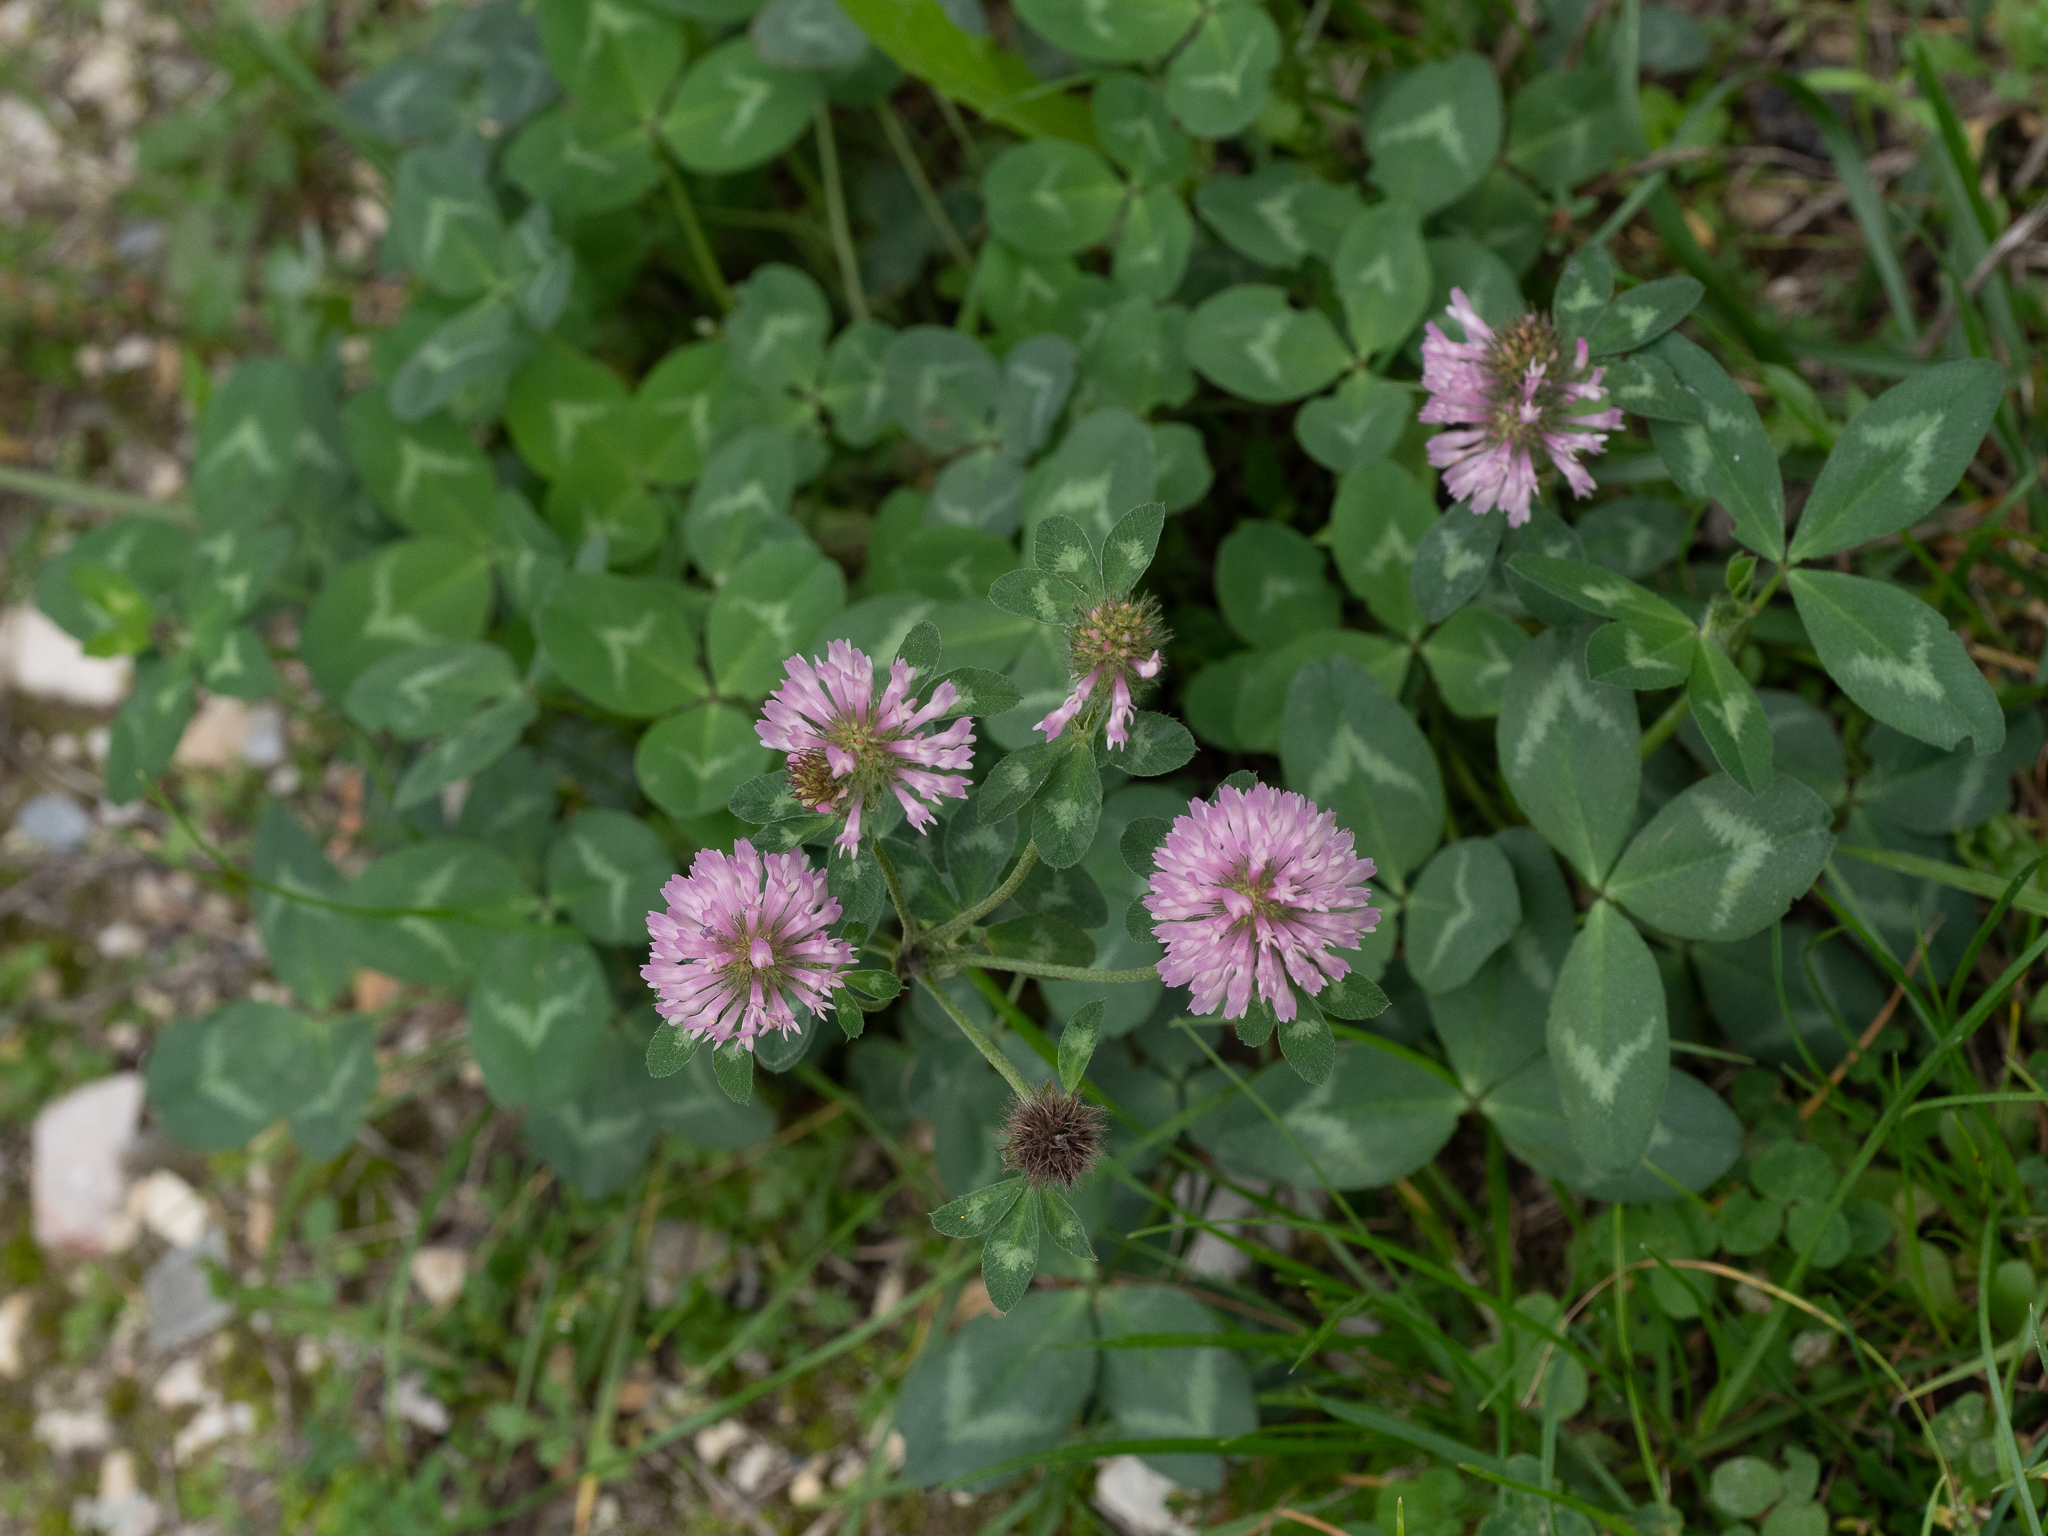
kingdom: Plantae
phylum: Tracheophyta
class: Magnoliopsida
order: Fabales
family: Fabaceae
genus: Trifolium
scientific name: Trifolium pratense
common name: Red clover
